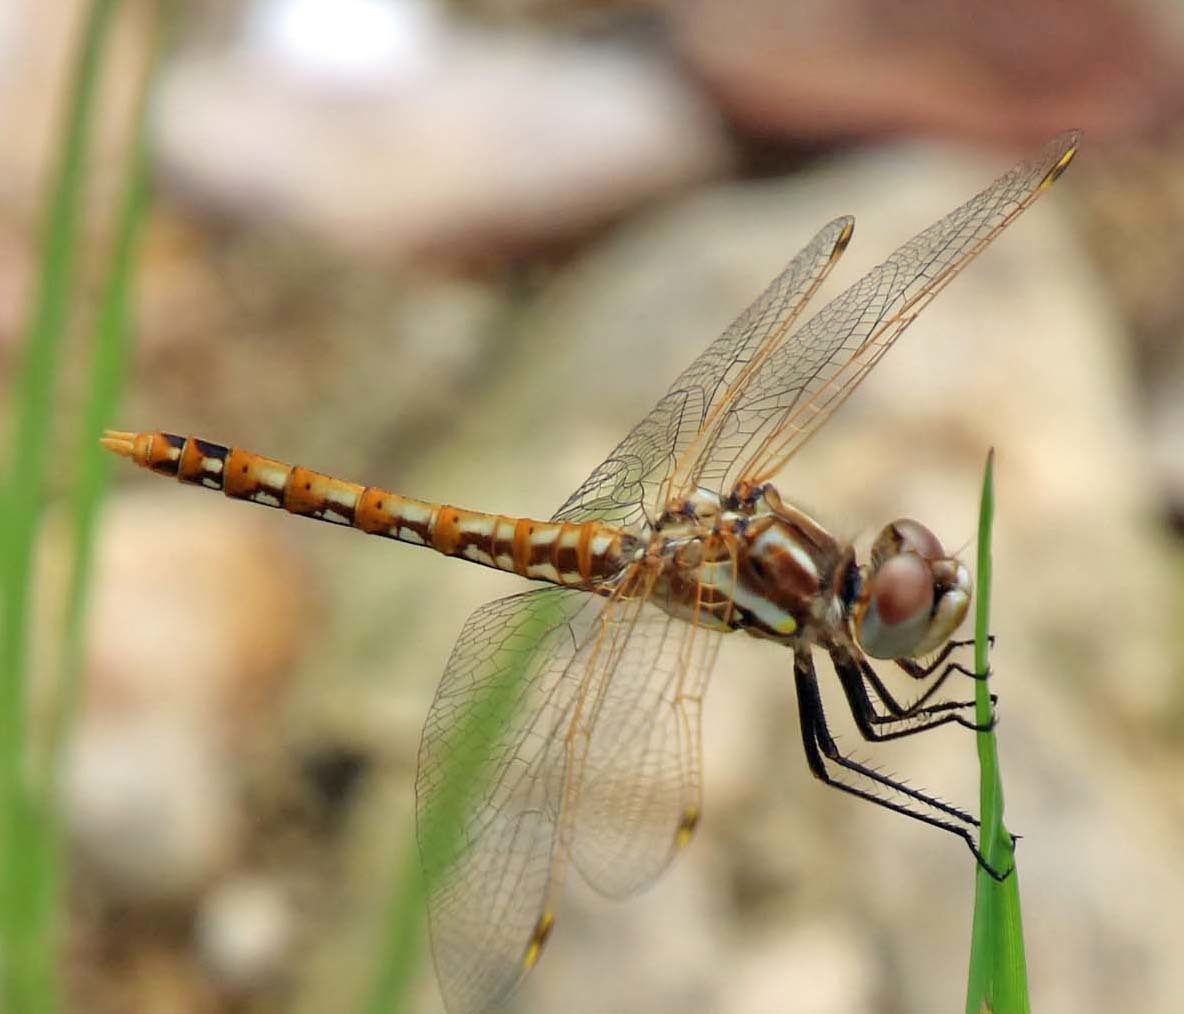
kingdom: Animalia
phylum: Arthropoda
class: Insecta
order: Odonata
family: Libellulidae
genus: Sympetrum
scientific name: Sympetrum corruptum
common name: Variegated meadowhawk
